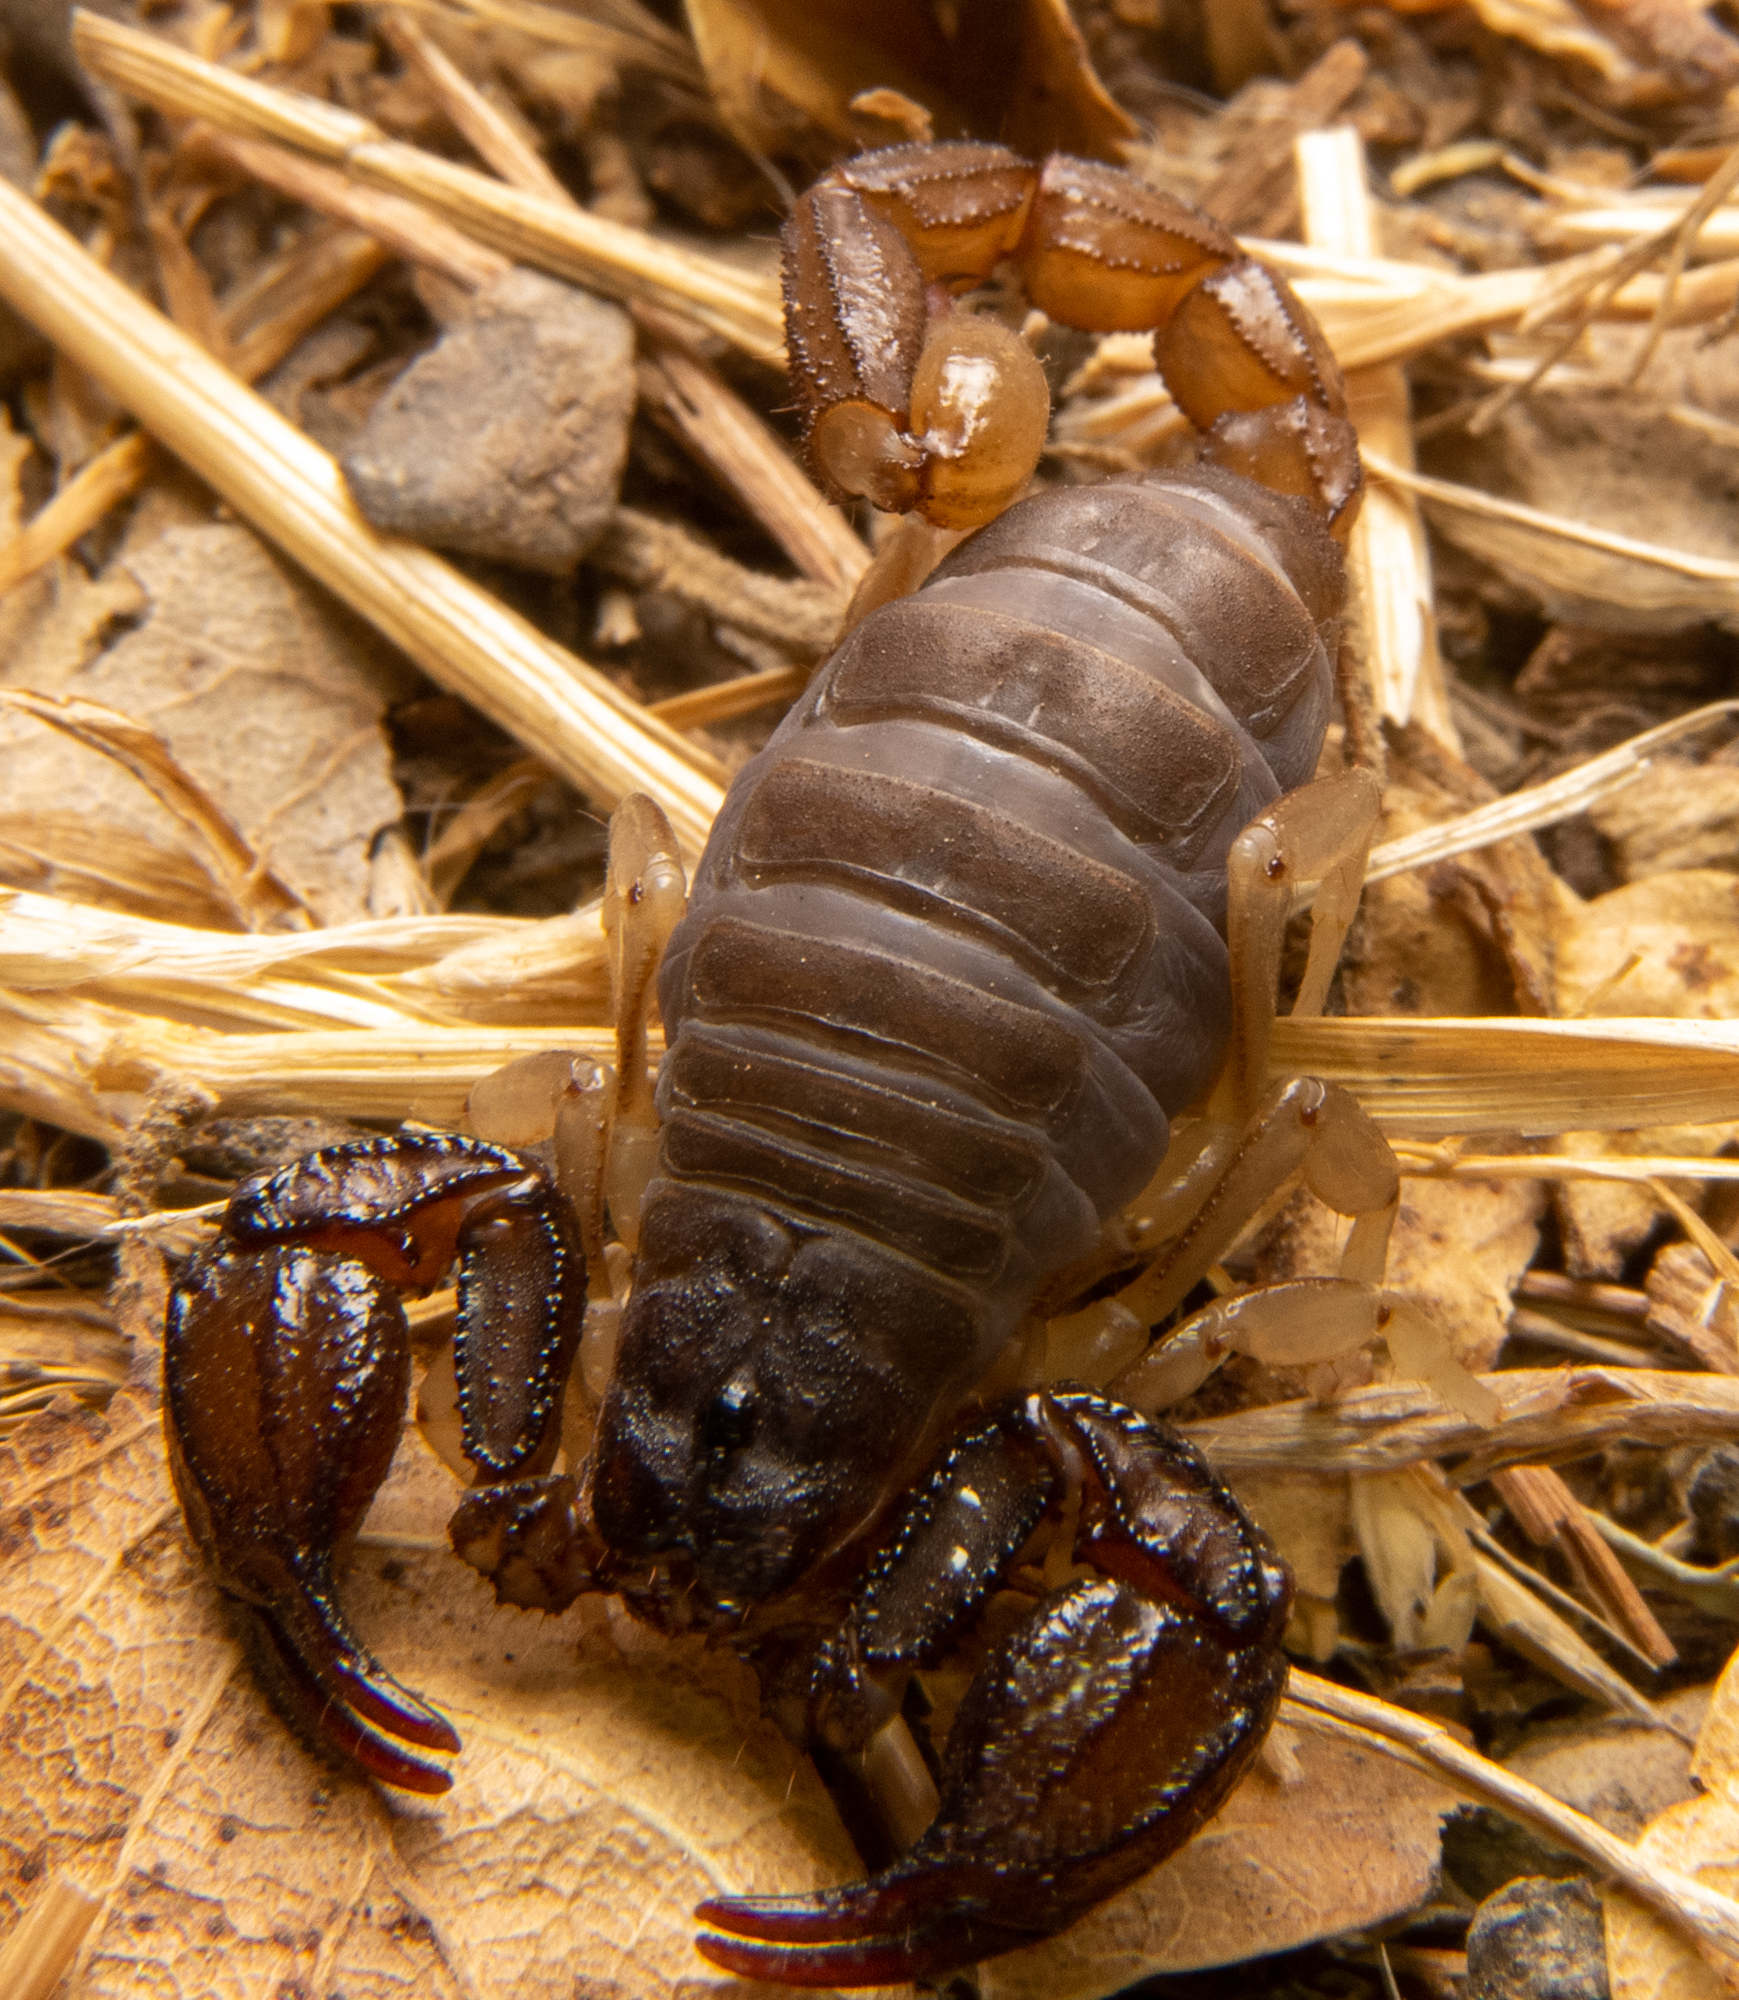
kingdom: Animalia
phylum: Arthropoda
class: Arachnida
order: Scorpiones
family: Chactidae
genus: Uroctonus
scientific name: Uroctonus mordax
